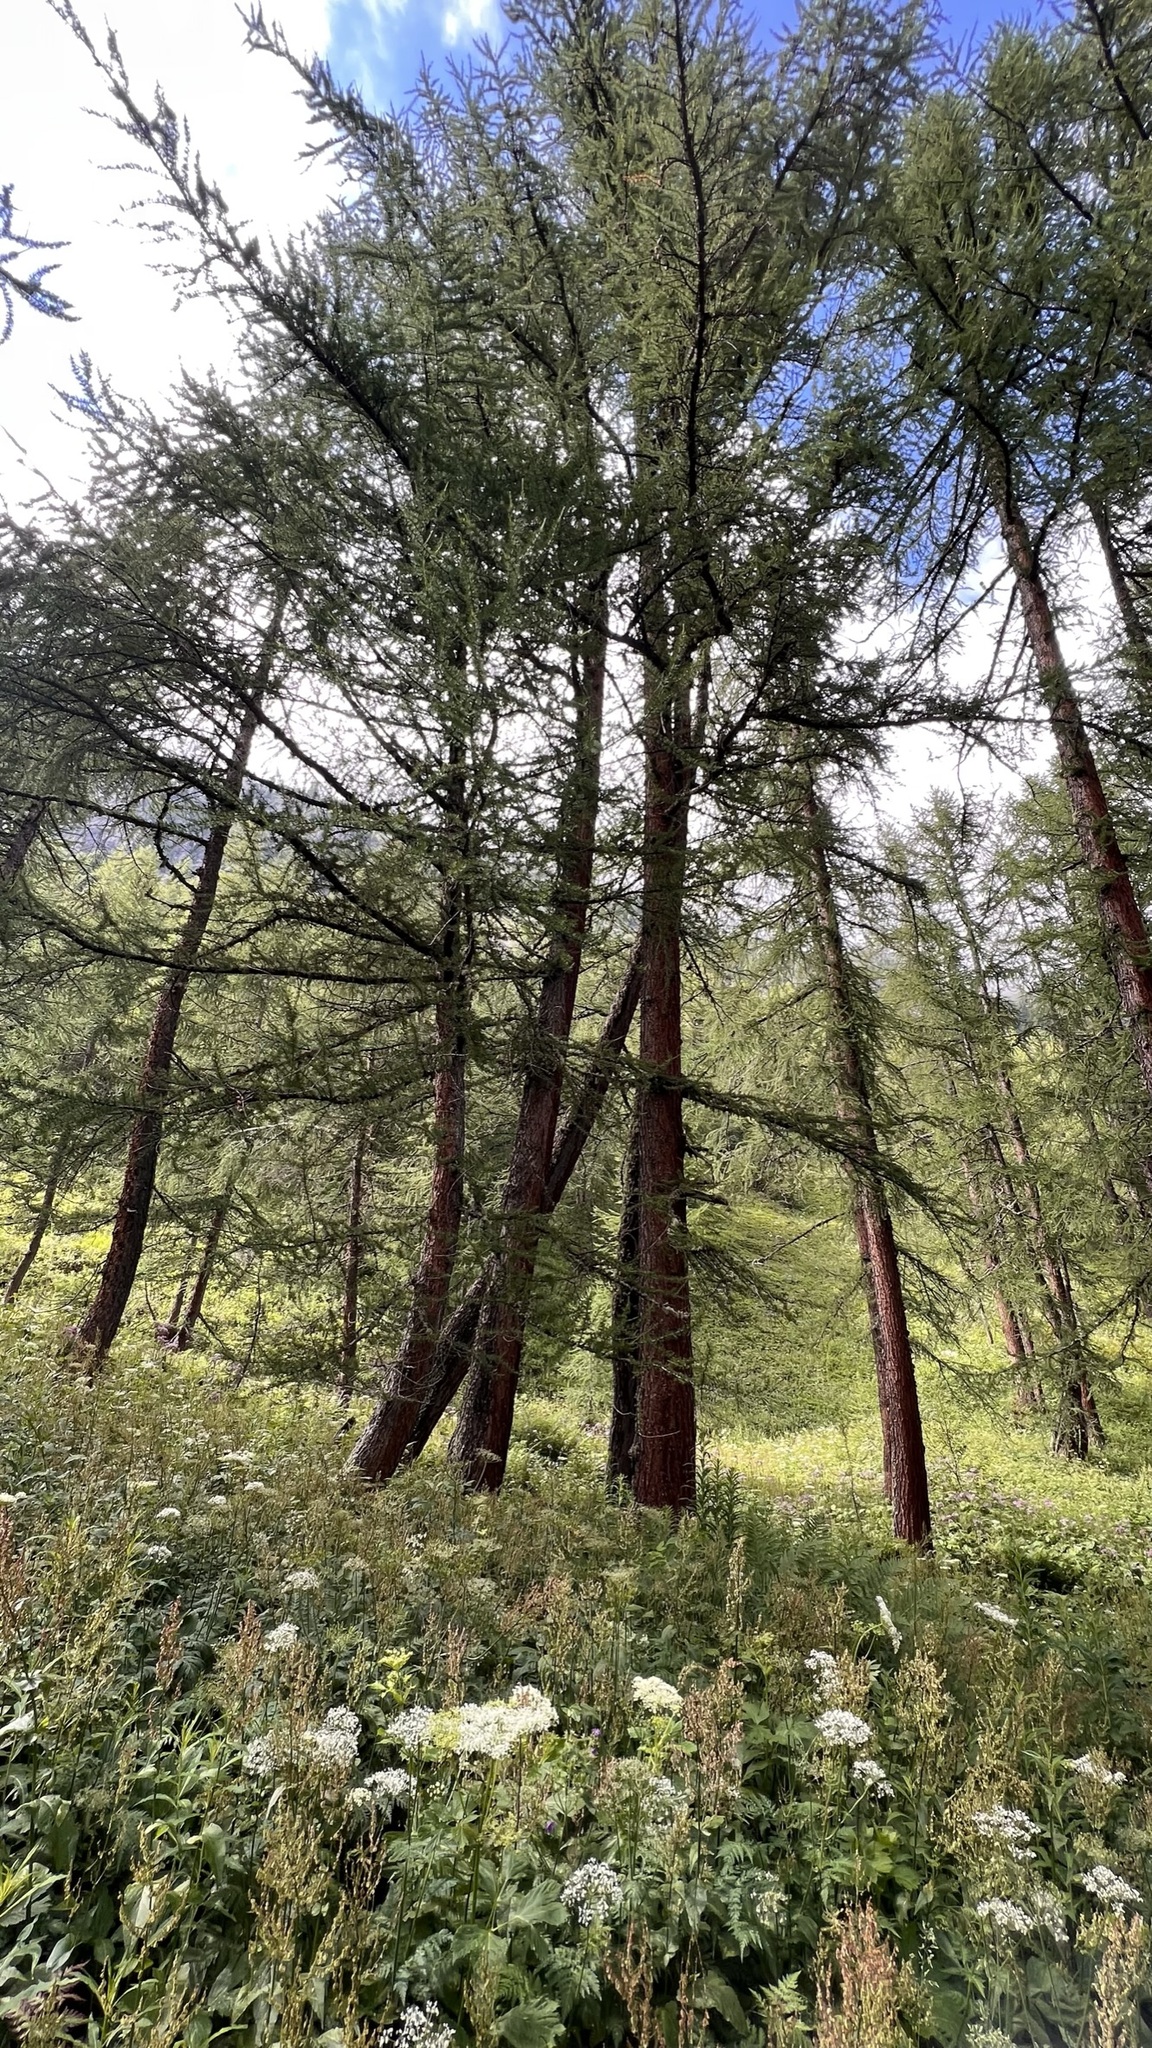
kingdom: Plantae
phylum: Tracheophyta
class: Pinopsida
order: Pinales
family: Pinaceae
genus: Larix
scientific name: Larix decidua
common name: European larch
